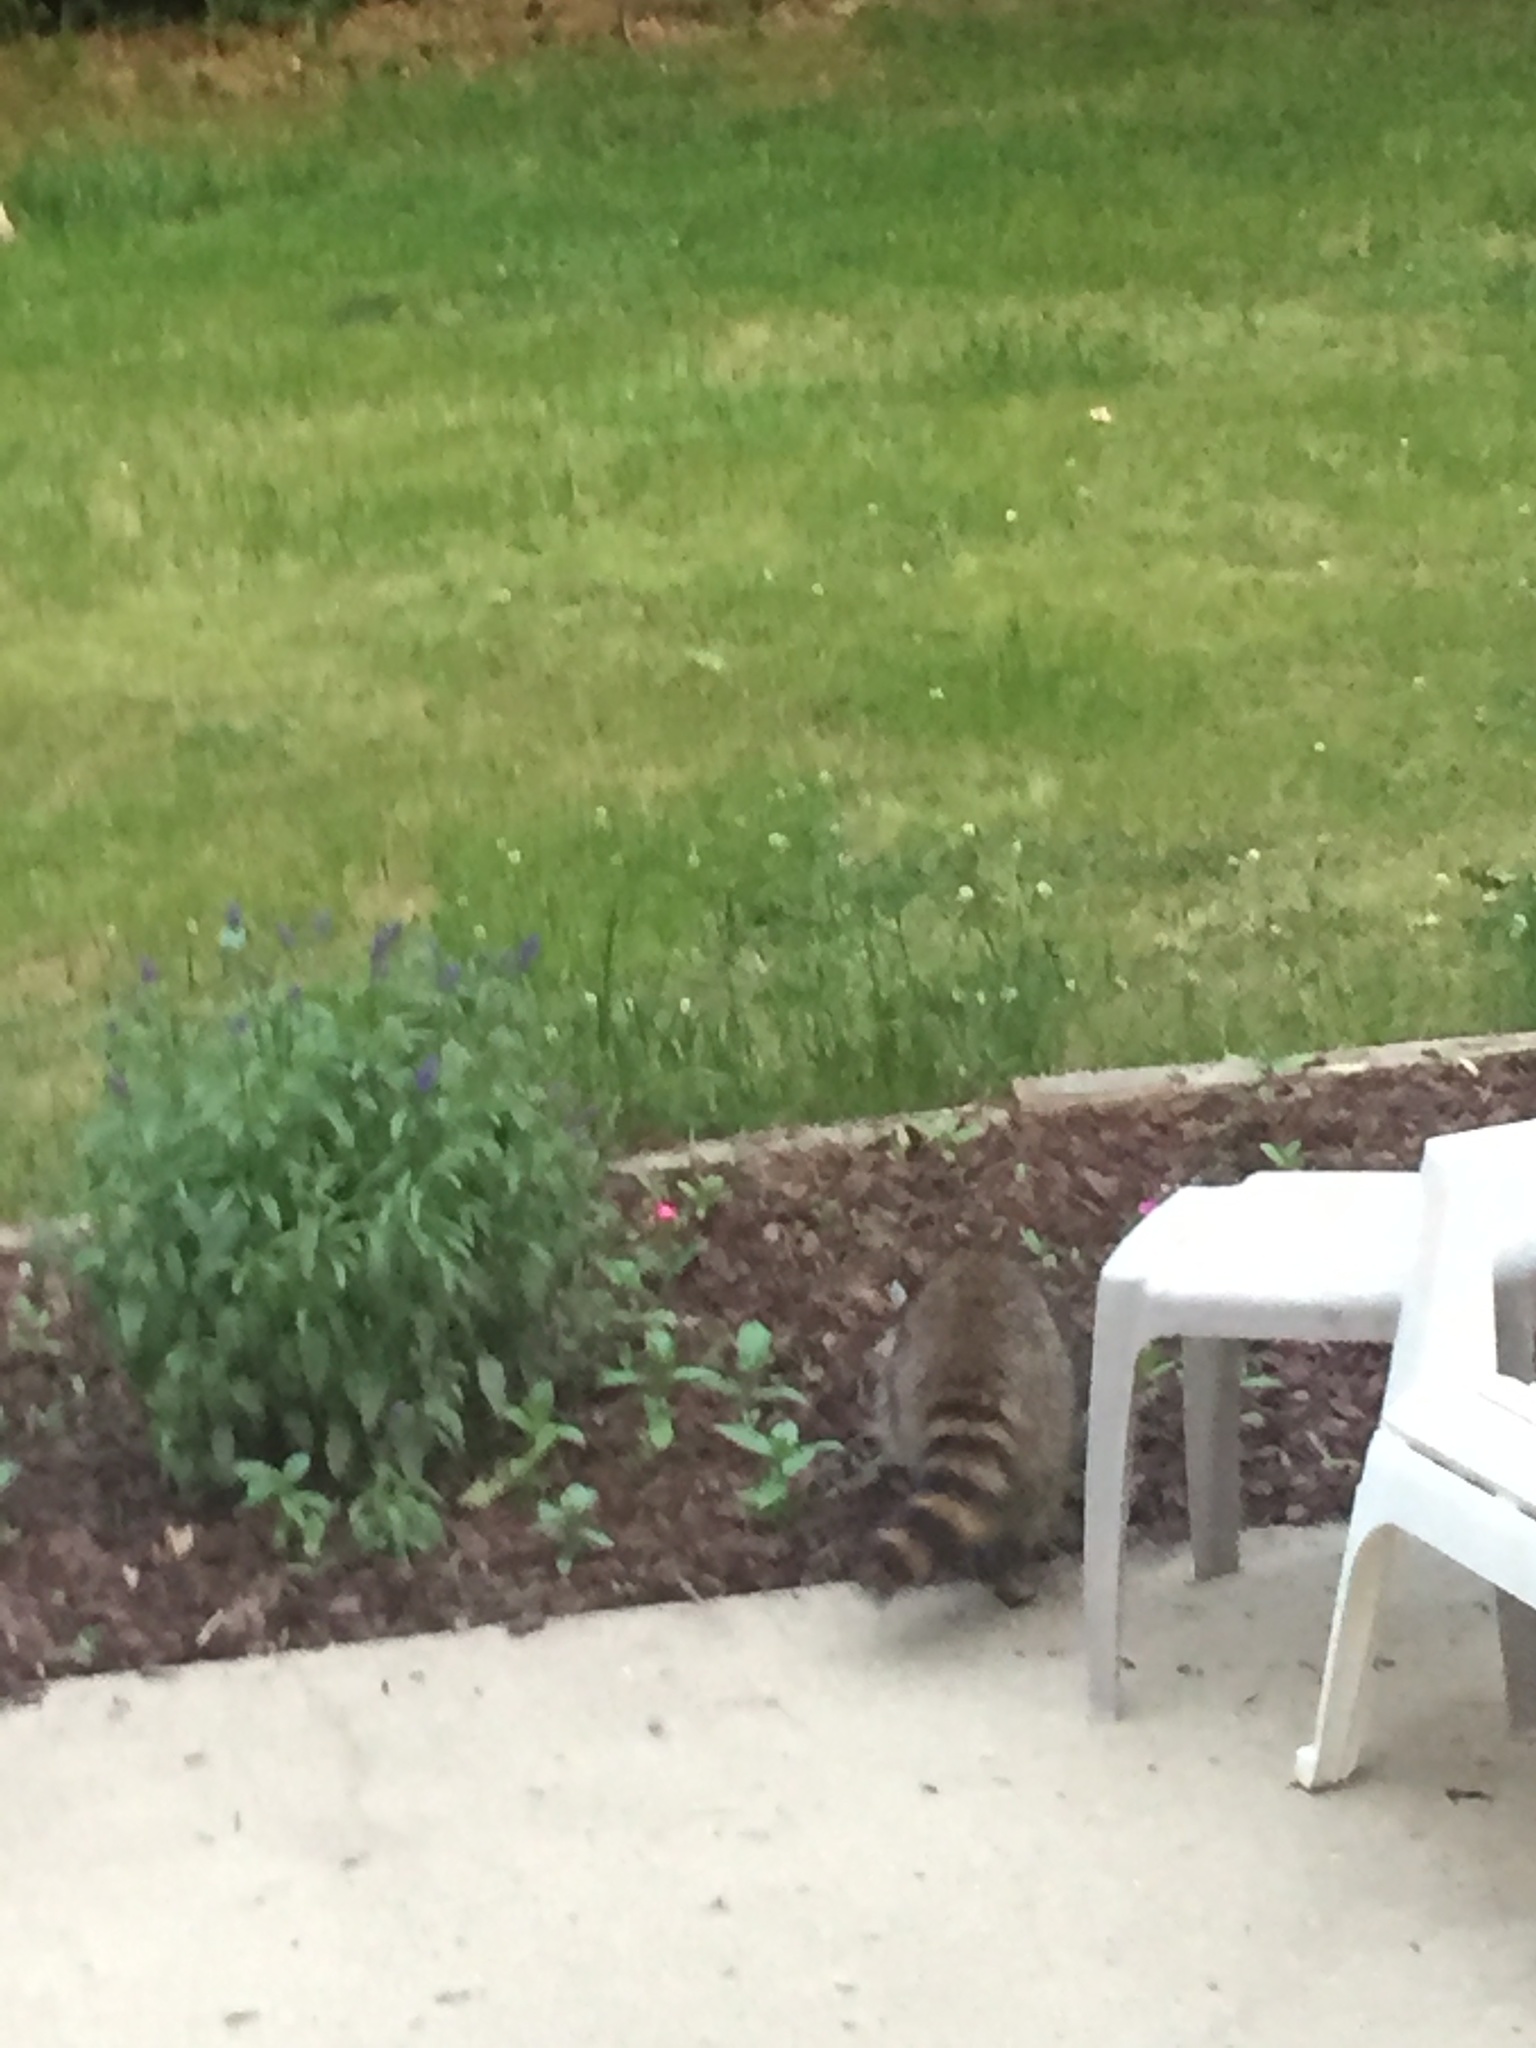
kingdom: Animalia
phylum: Chordata
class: Mammalia
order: Carnivora
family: Procyonidae
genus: Procyon
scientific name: Procyon lotor
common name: Raccoon
